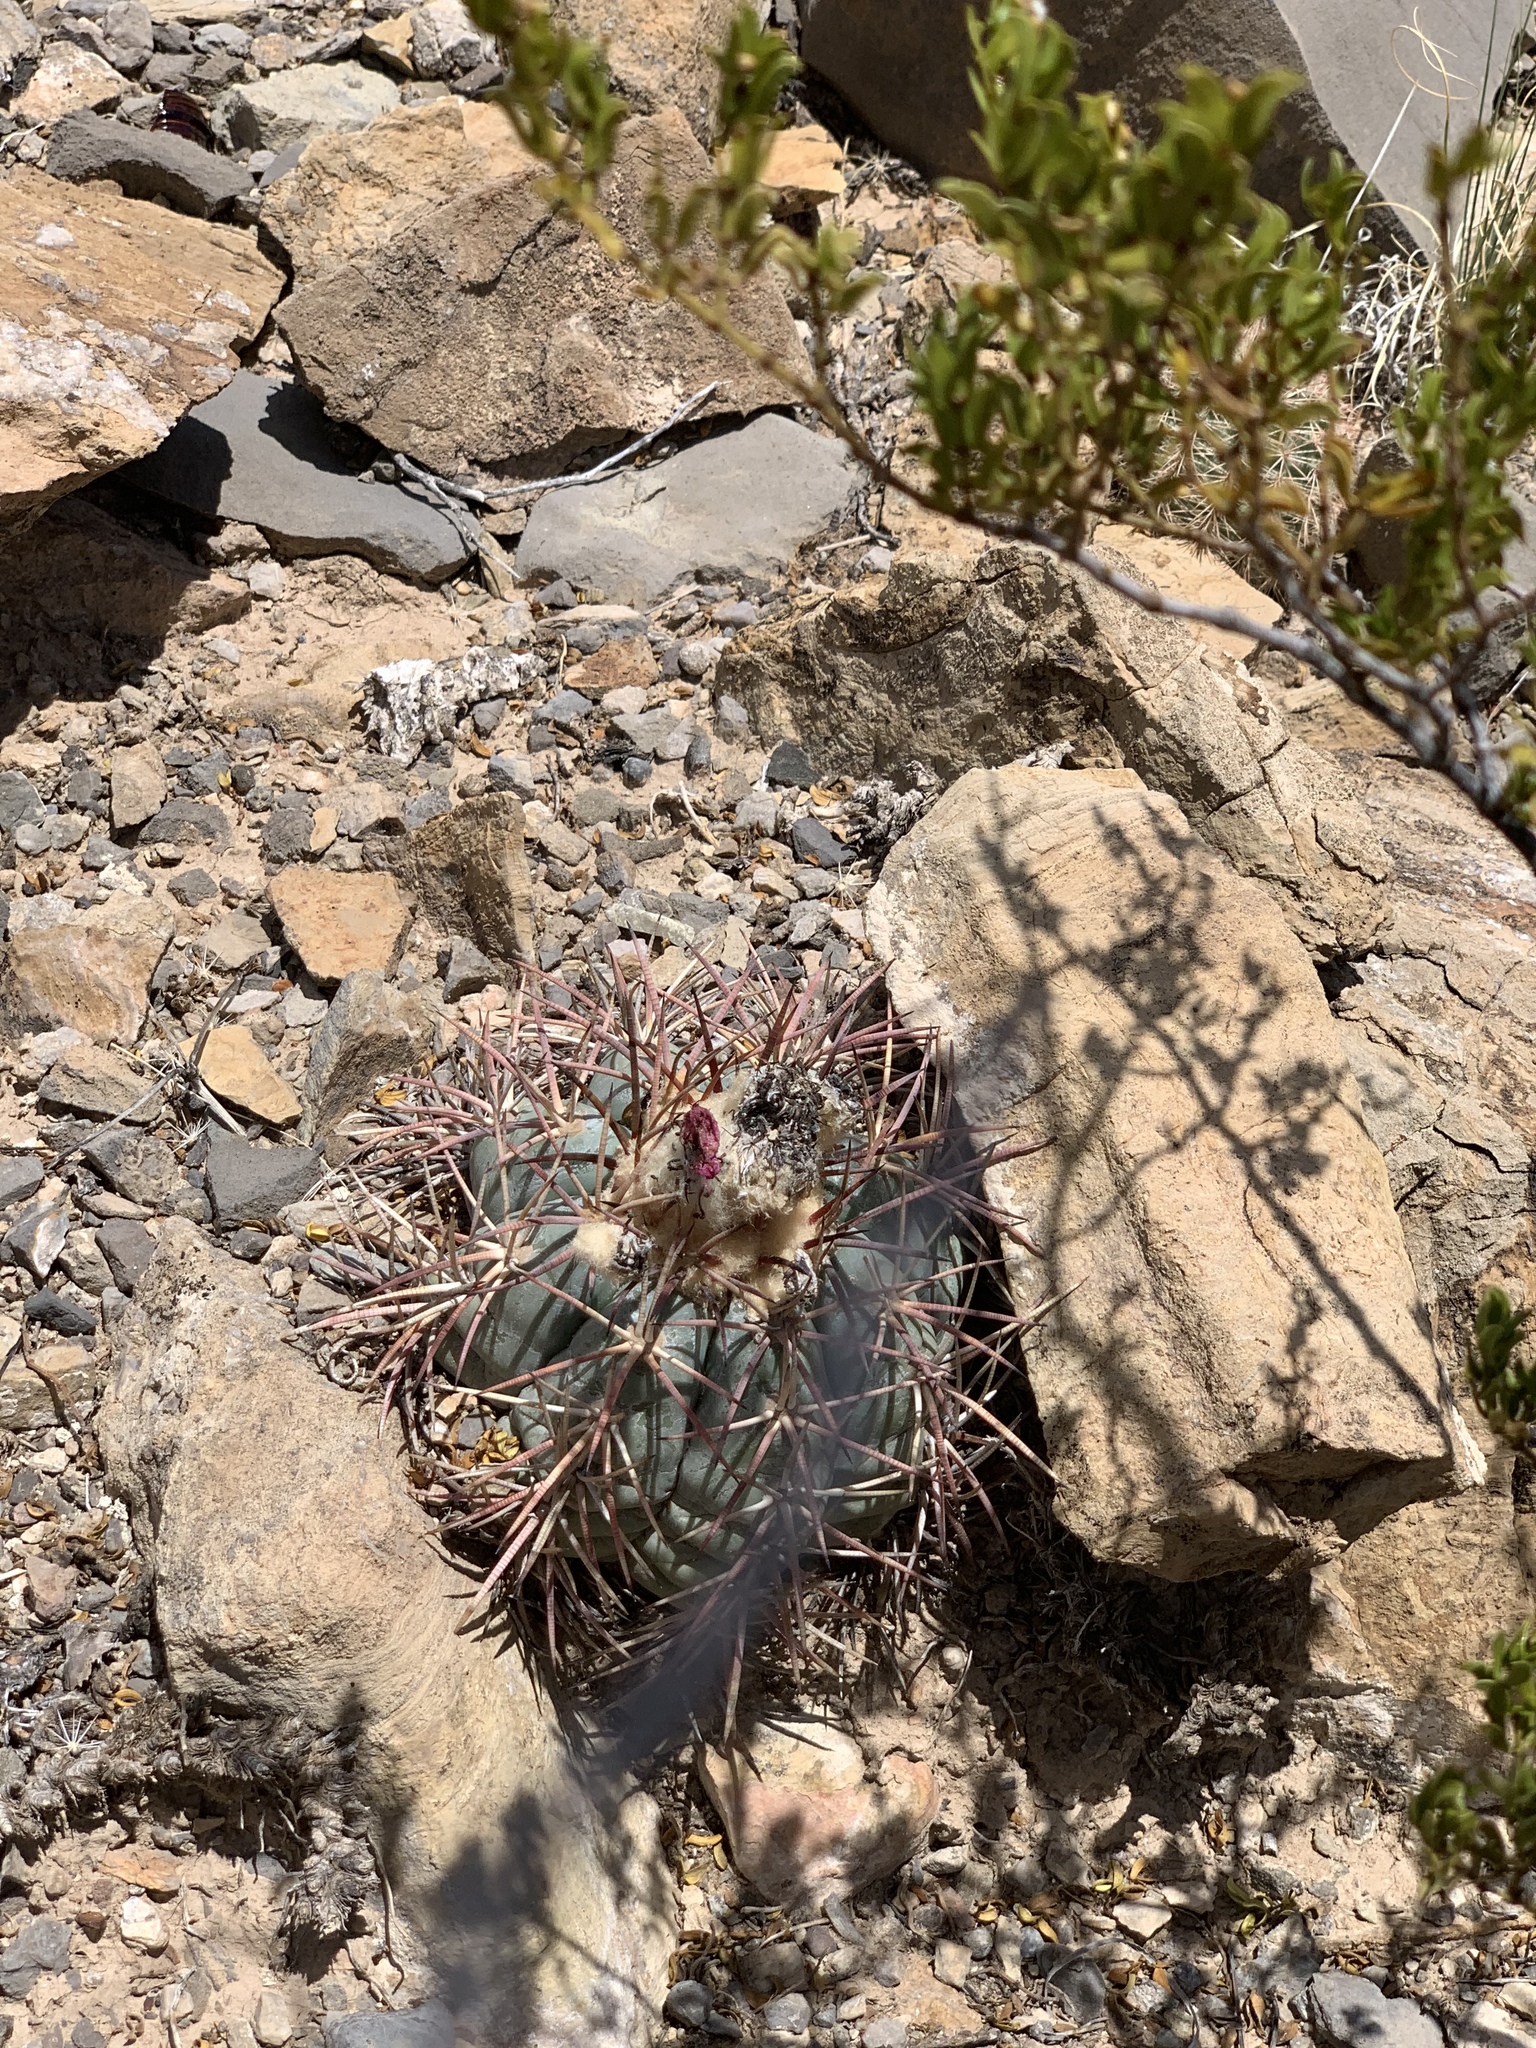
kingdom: Plantae
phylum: Tracheophyta
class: Magnoliopsida
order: Caryophyllales
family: Cactaceae
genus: Echinocactus
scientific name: Echinocactus horizonthalonius
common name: Devilshead
